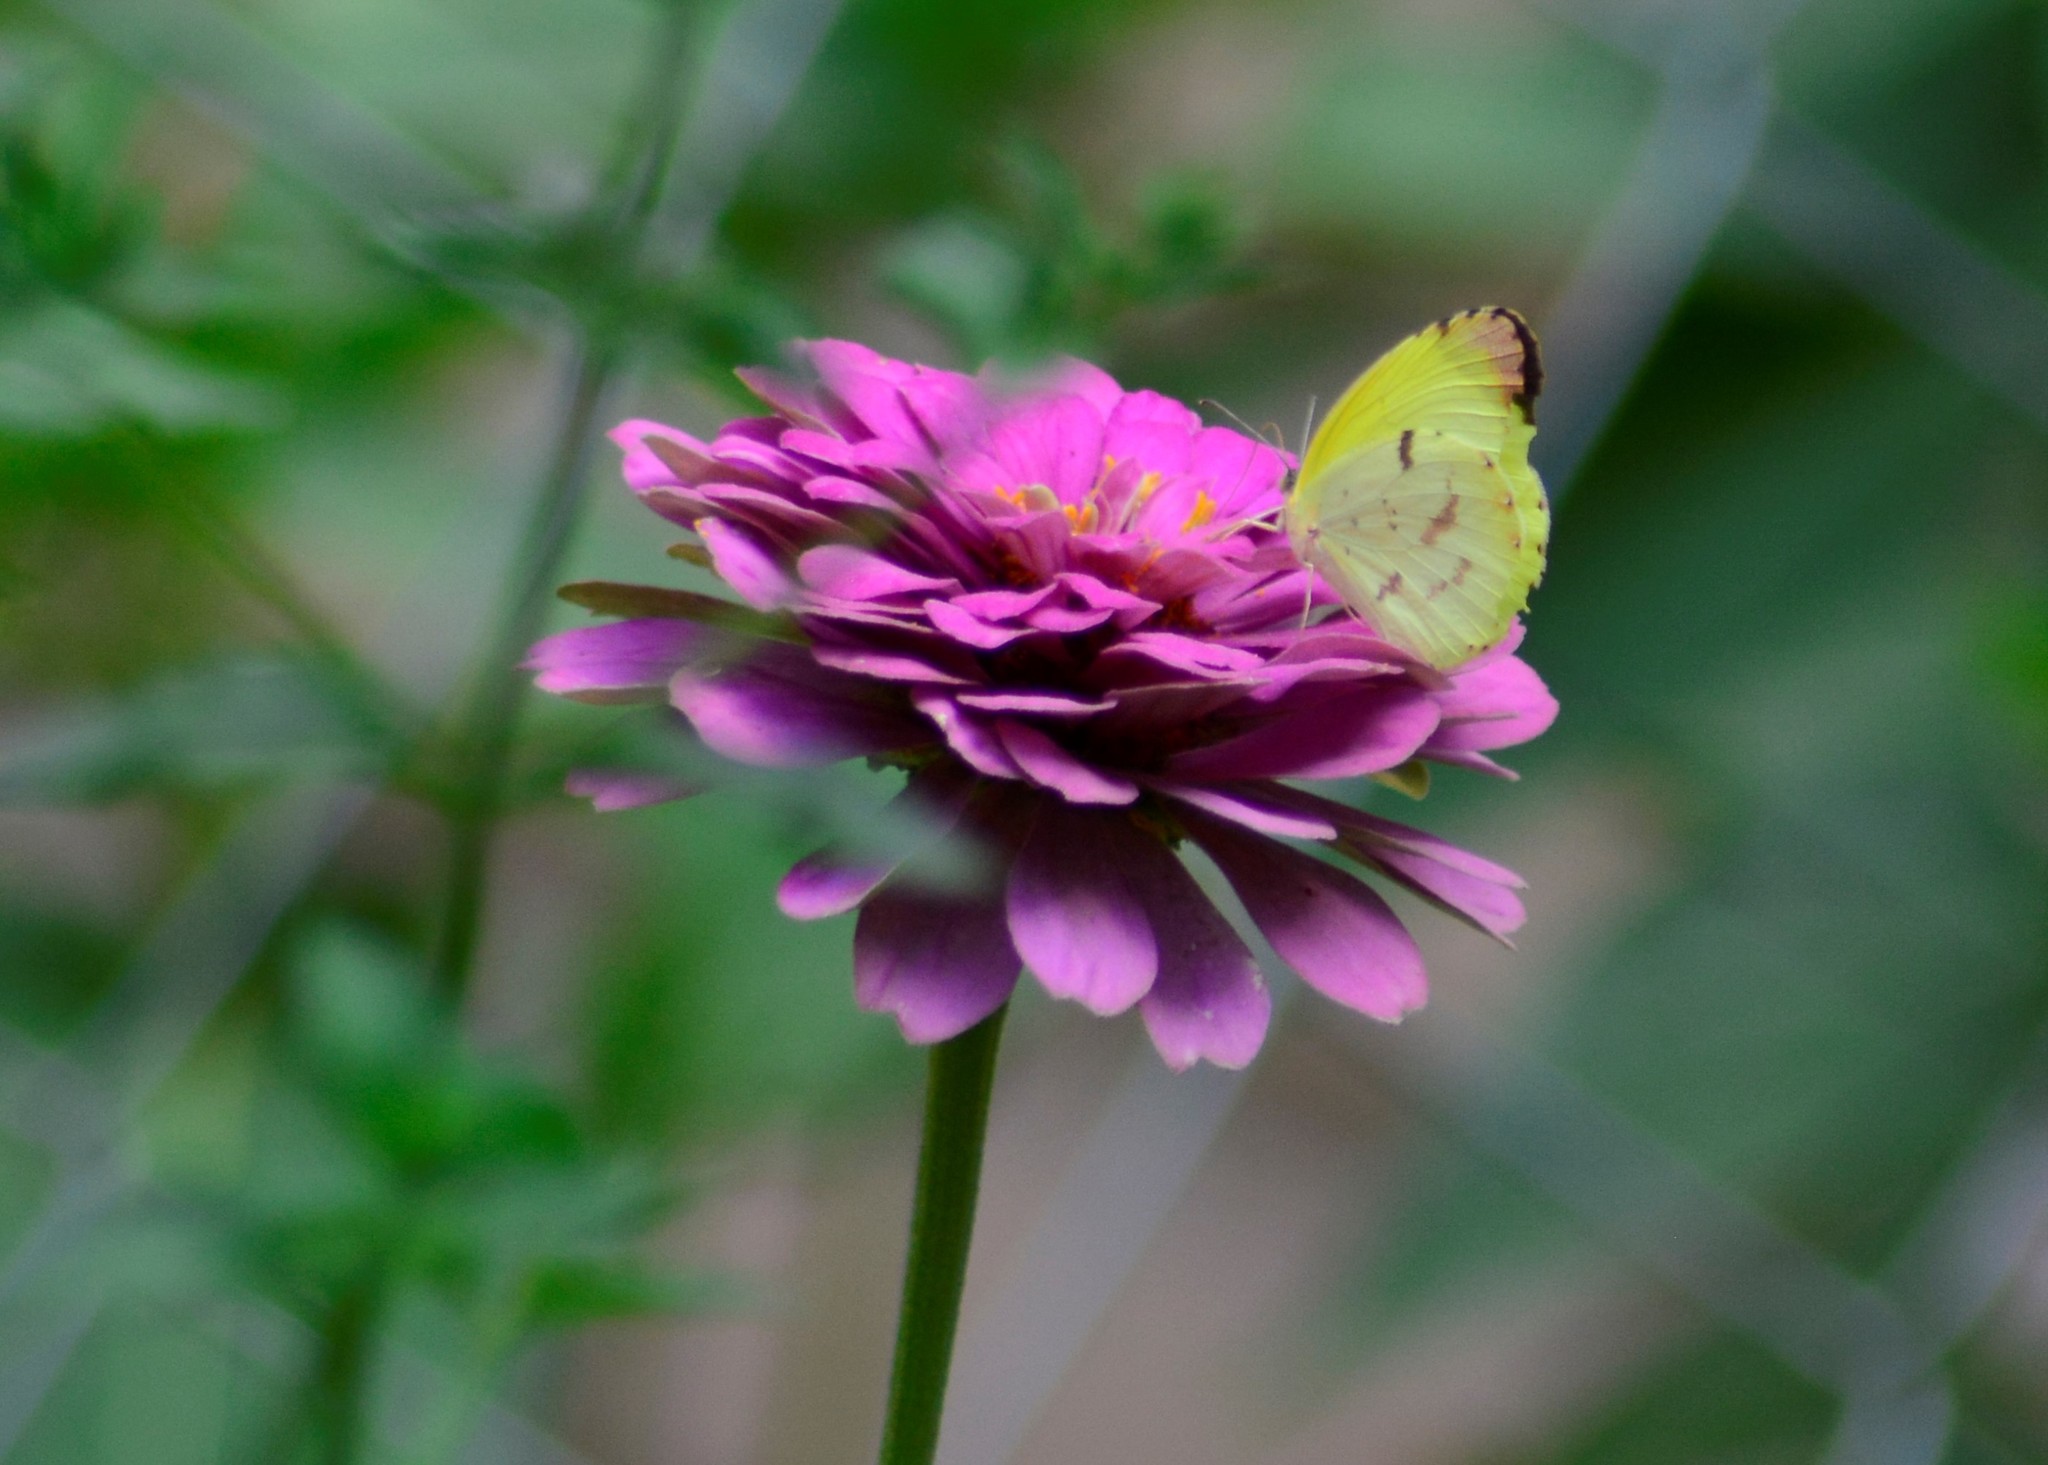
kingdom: Animalia
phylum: Arthropoda
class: Insecta
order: Lepidoptera
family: Pieridae
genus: Teriocolias
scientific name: Teriocolias
